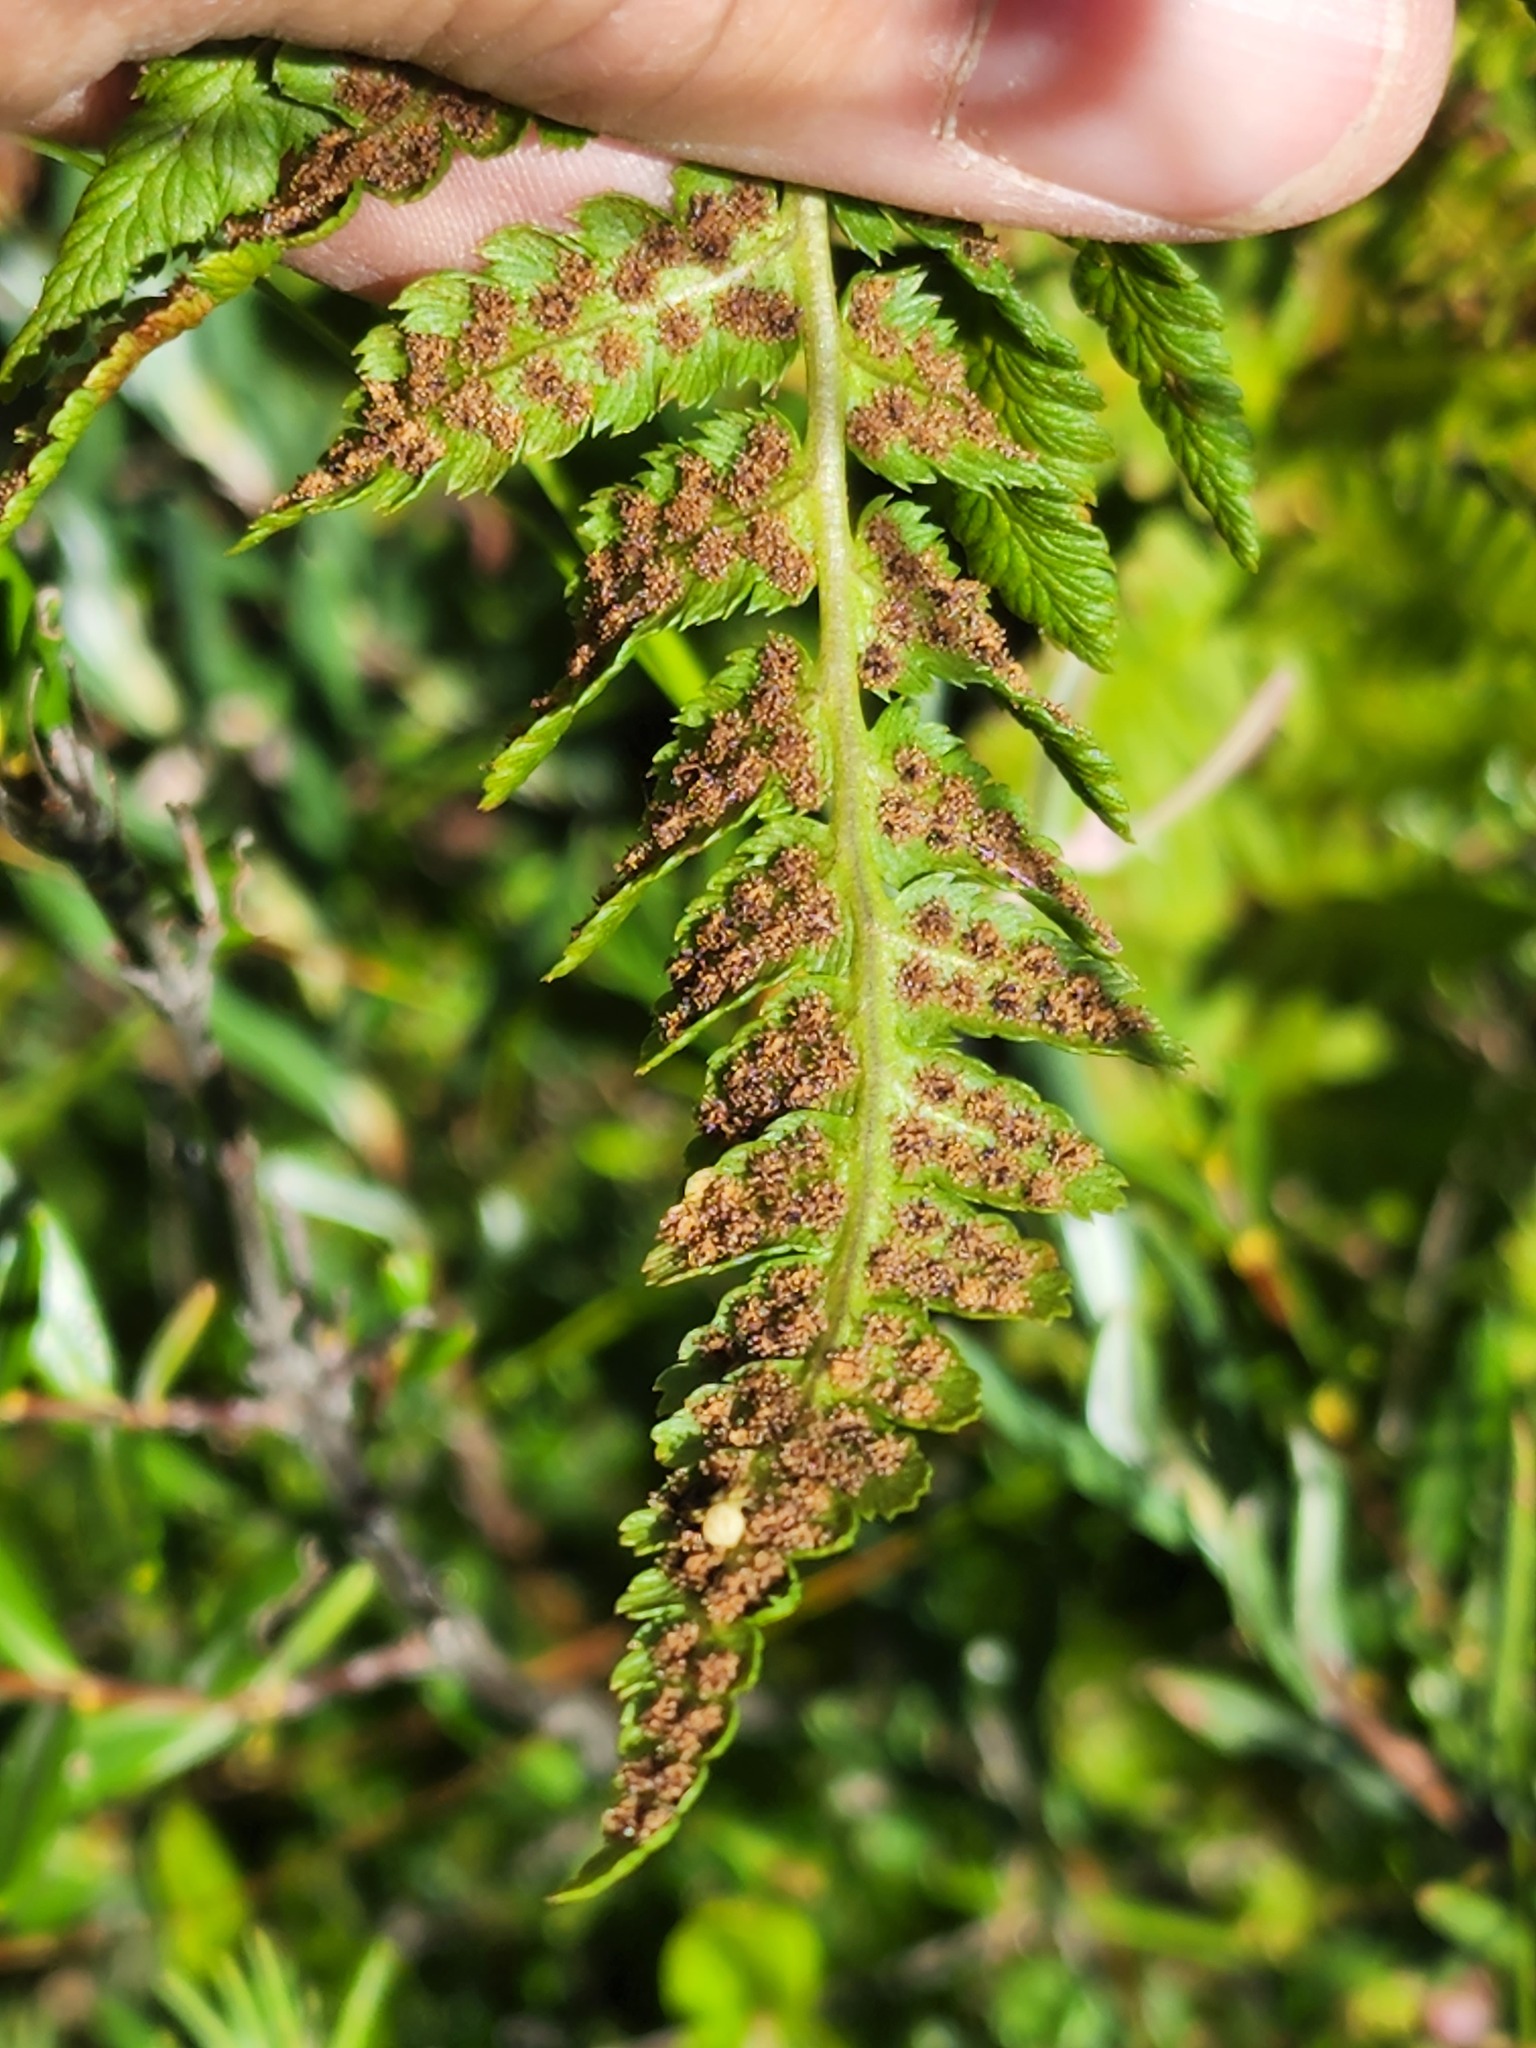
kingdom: Plantae
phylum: Tracheophyta
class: Polypodiopsida
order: Polypodiales
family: Dryopteridaceae
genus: Dryopteris
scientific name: Dryopteris cristata
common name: Crested wood fern
